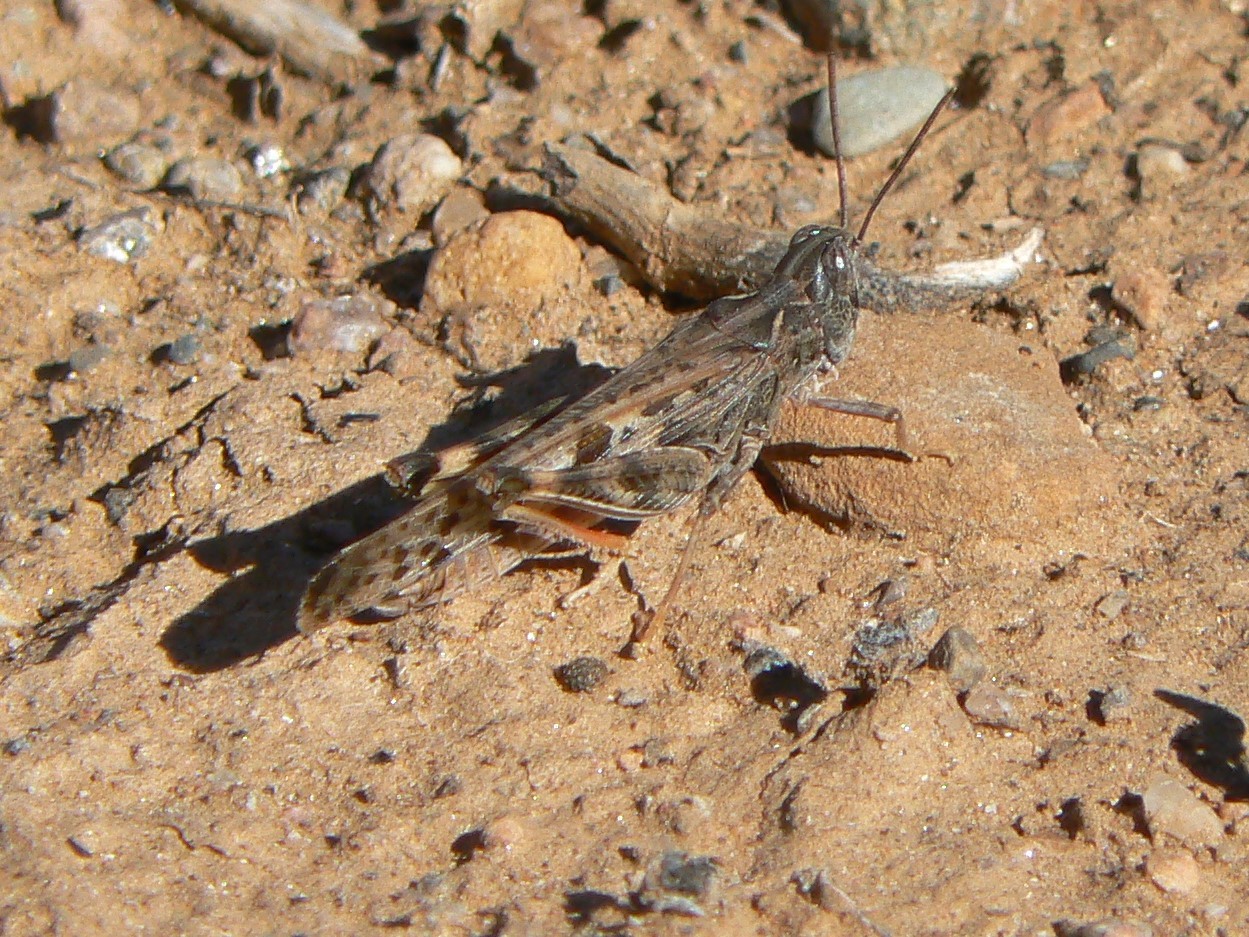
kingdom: Animalia
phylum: Arthropoda
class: Insecta
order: Orthoptera
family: Acrididae
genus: Chortoicetes
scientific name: Chortoicetes terminifera
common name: Australian plague locust
